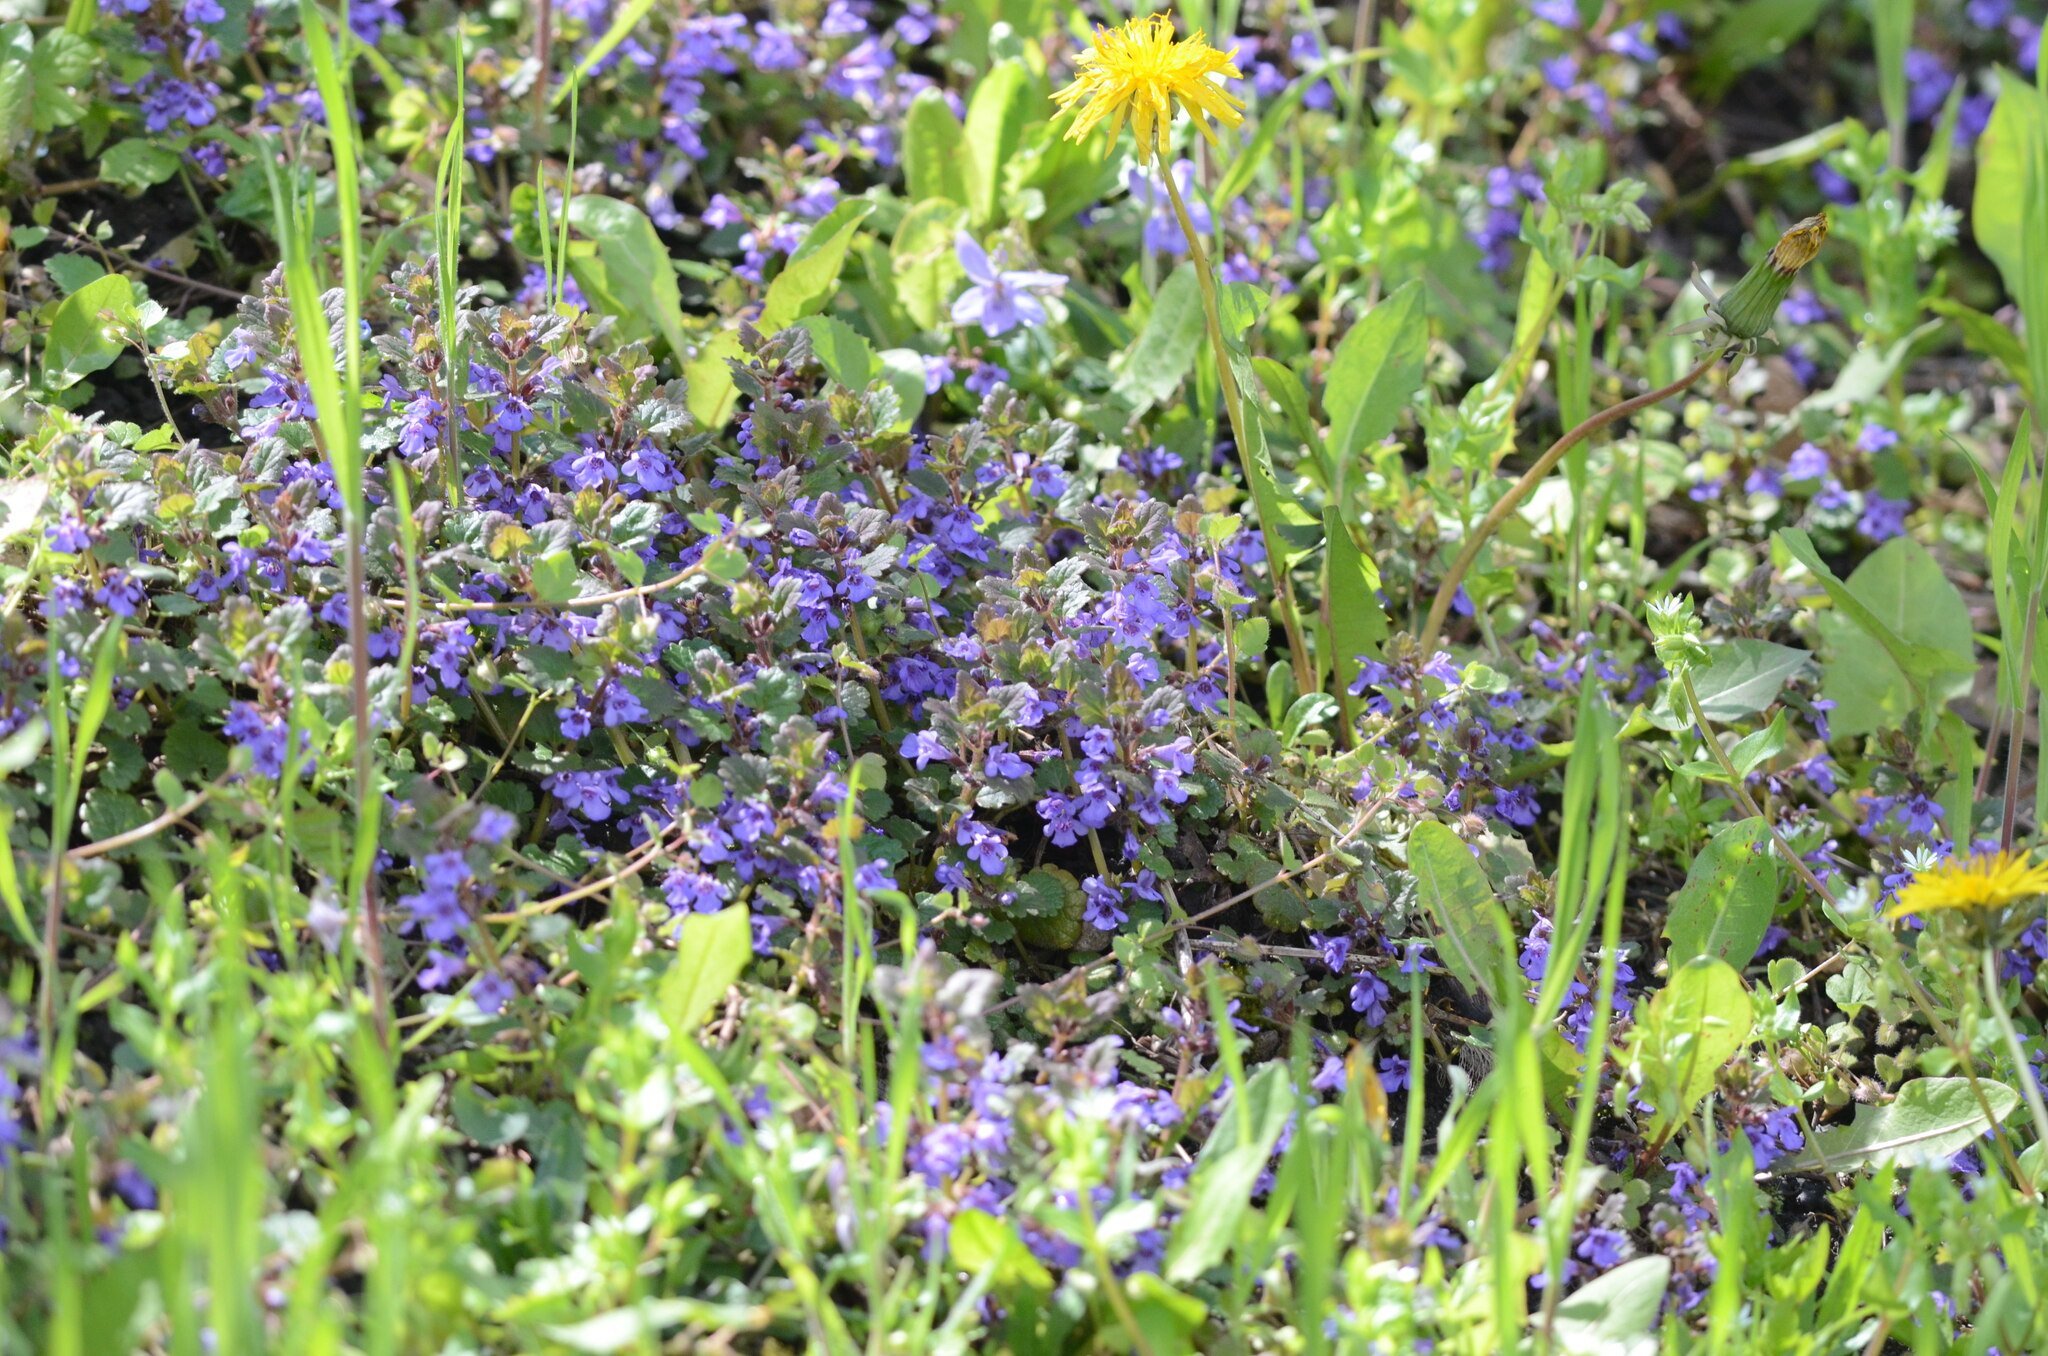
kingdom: Plantae
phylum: Tracheophyta
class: Magnoliopsida
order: Lamiales
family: Lamiaceae
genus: Glechoma
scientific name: Glechoma hederacea
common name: Ground ivy
